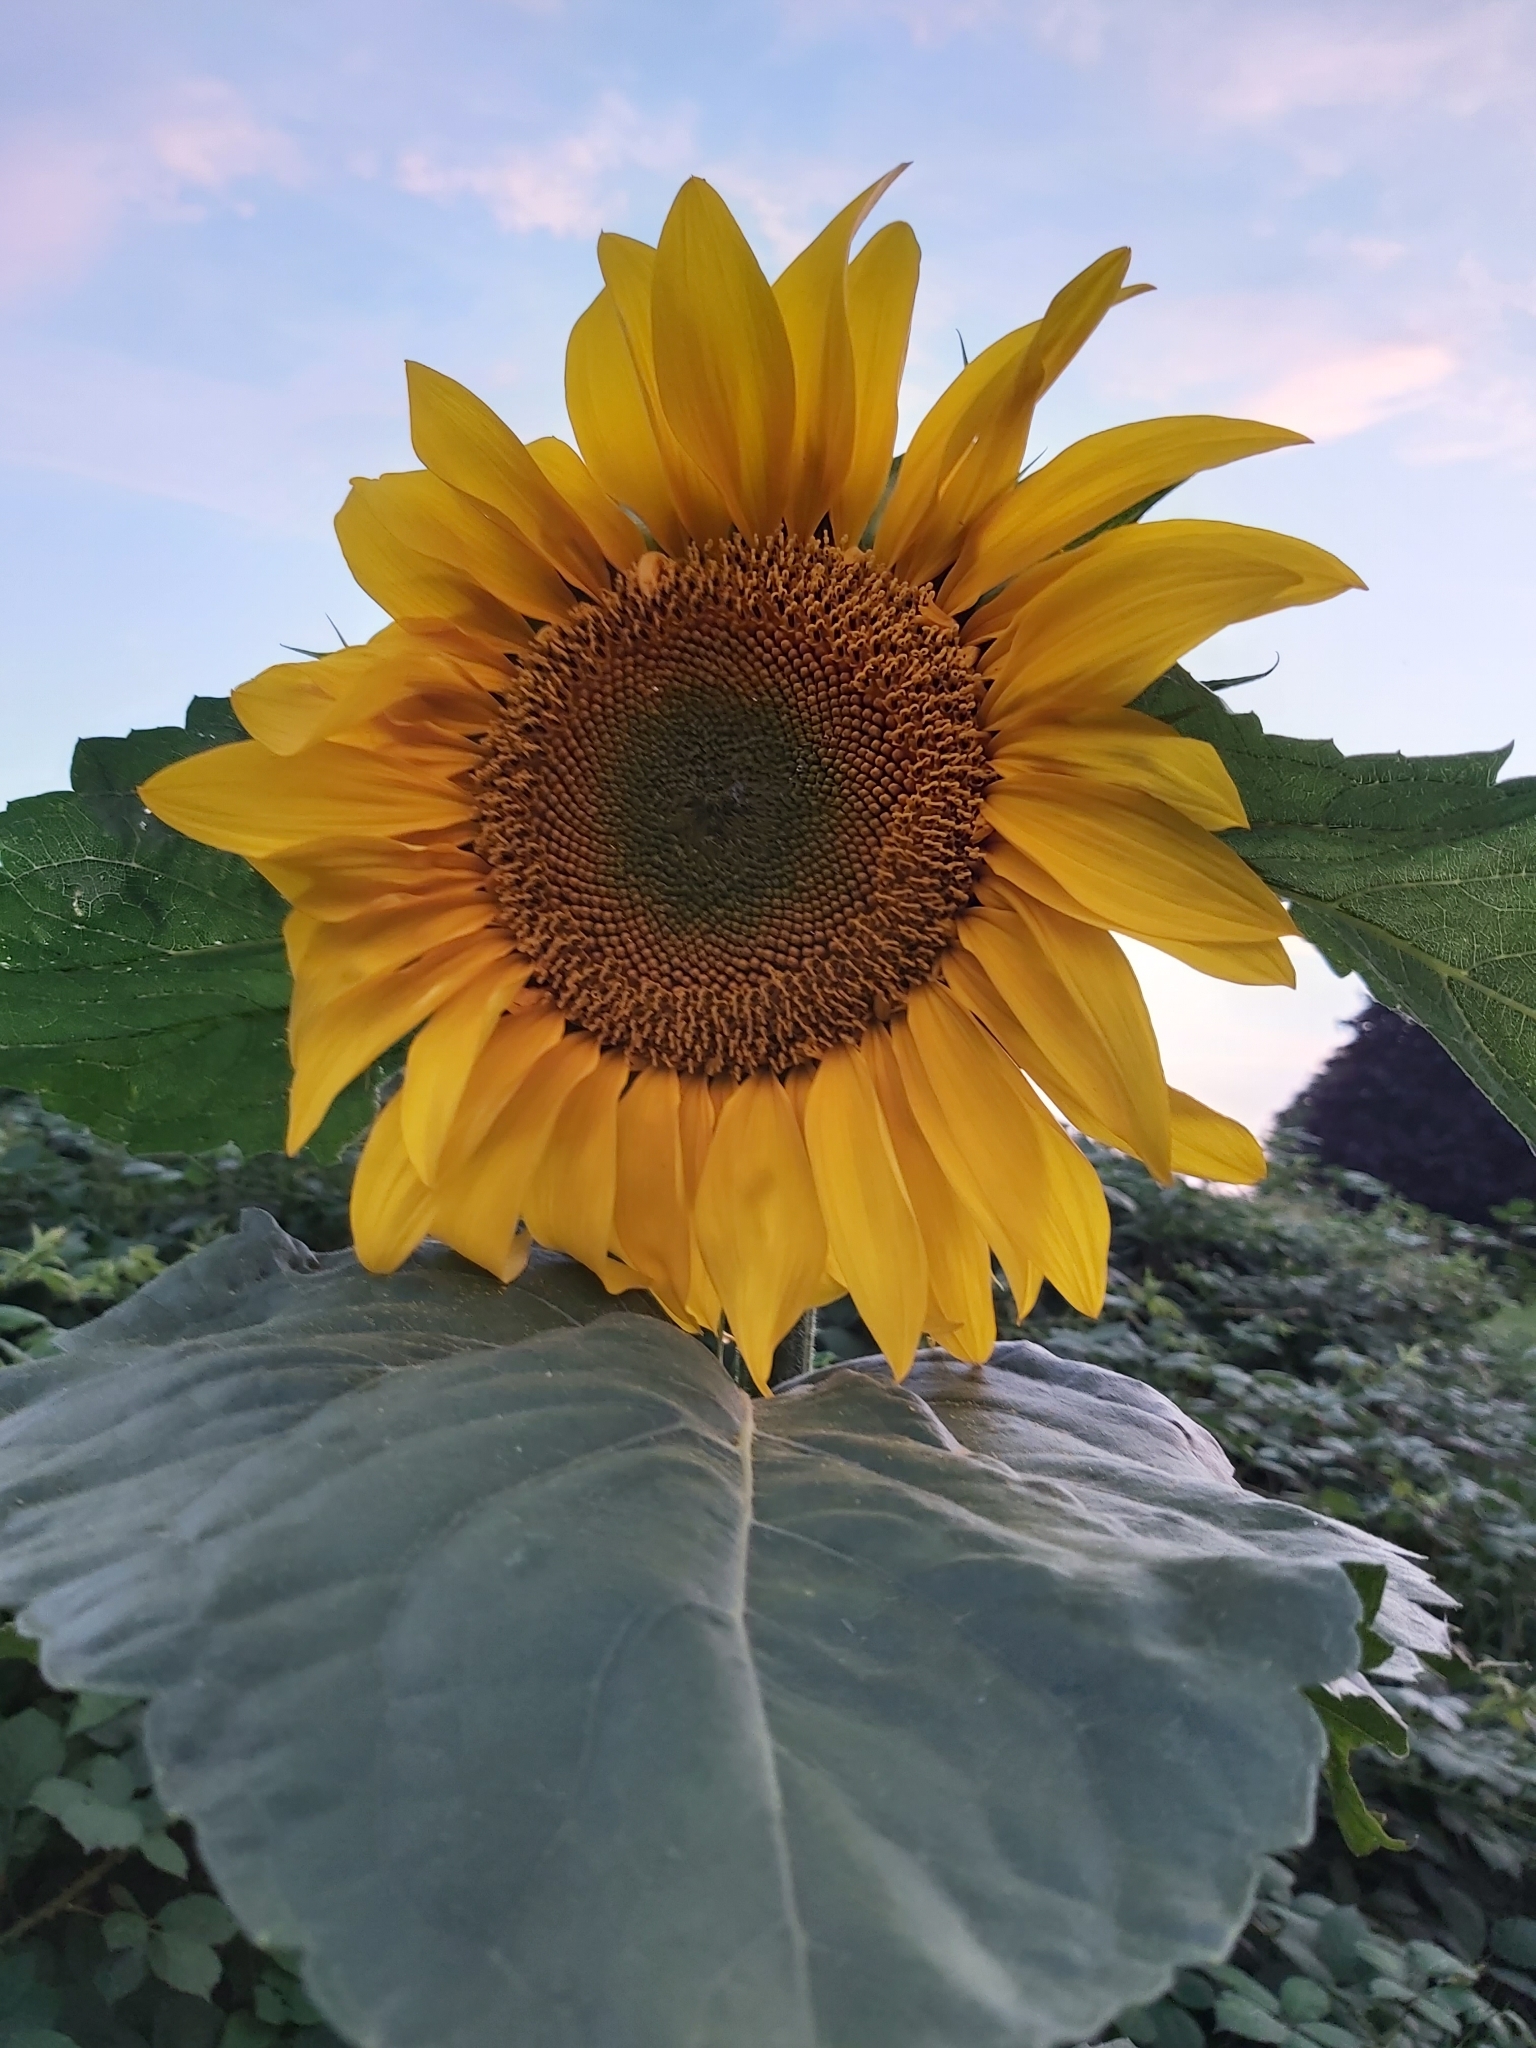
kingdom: Plantae
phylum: Tracheophyta
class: Magnoliopsida
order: Asterales
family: Asteraceae
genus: Helianthus
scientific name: Helianthus annuus
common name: Sunflower
